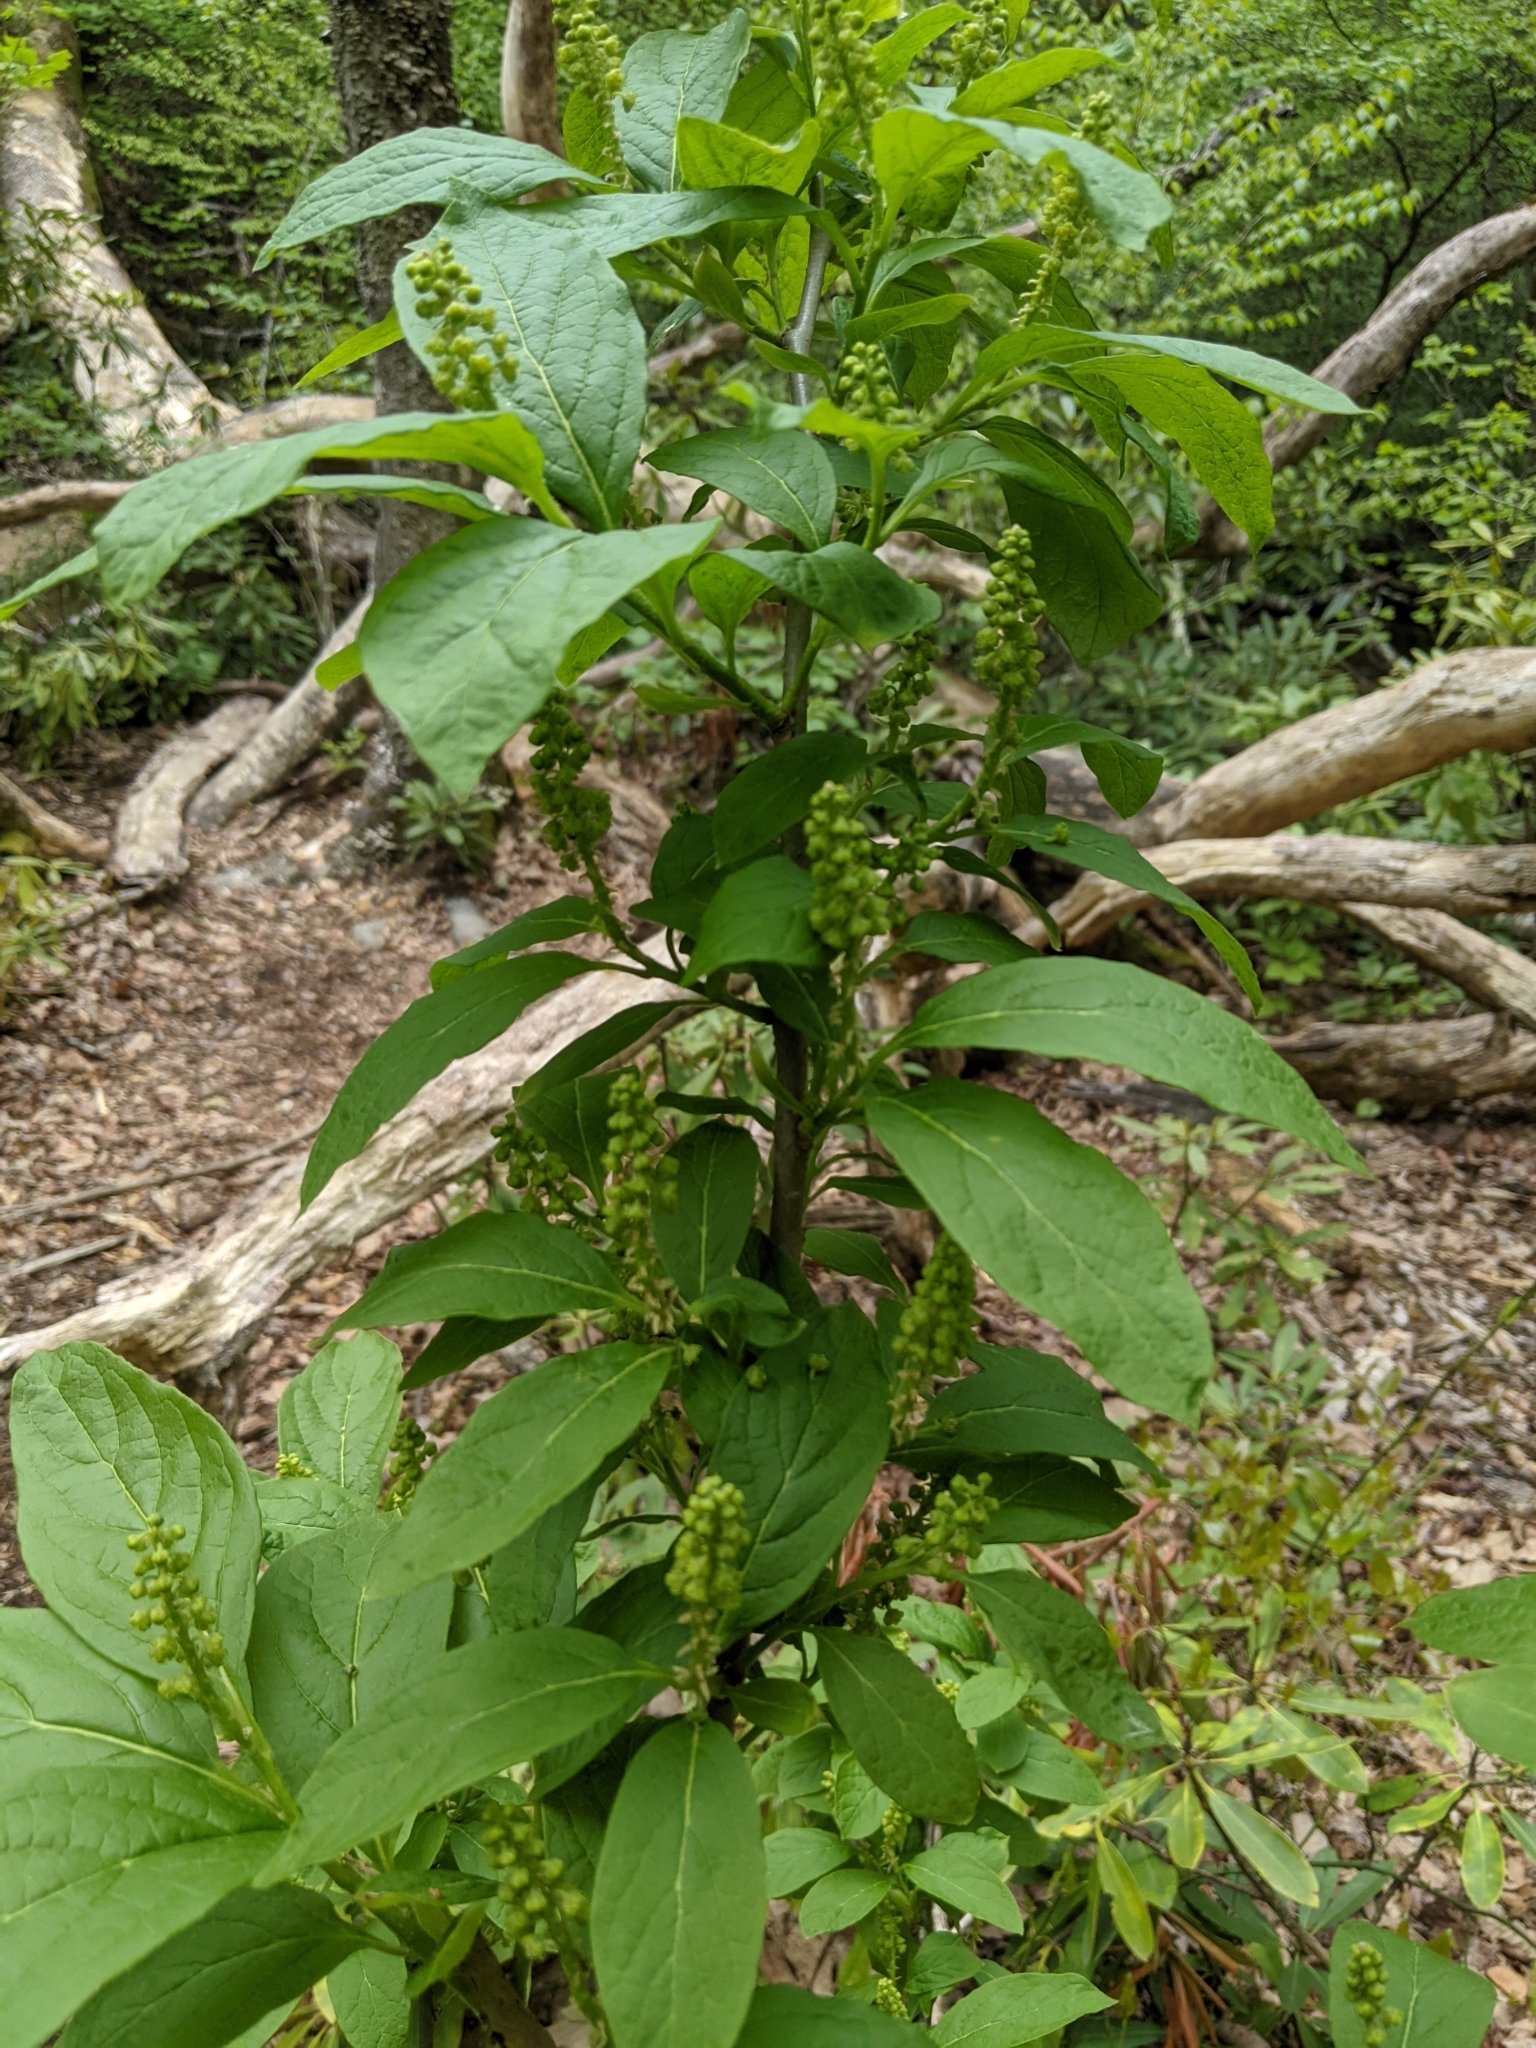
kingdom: Plantae
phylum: Tracheophyta
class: Magnoliopsida
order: Santalales
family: Cervantesiaceae
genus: Pyrularia
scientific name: Pyrularia pubera
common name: Oilnut
